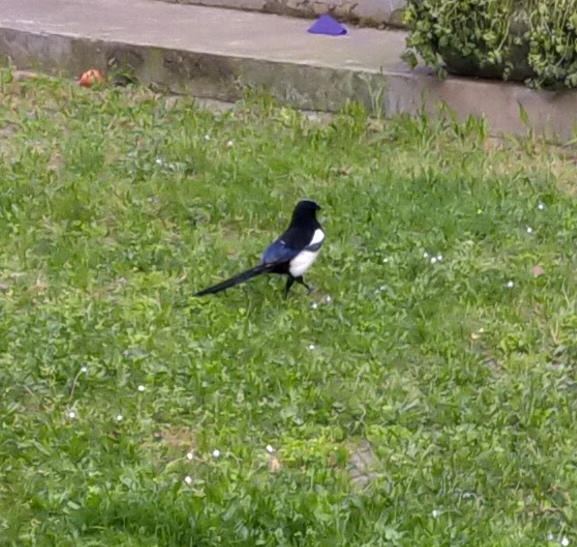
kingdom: Animalia
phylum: Chordata
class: Aves
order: Passeriformes
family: Corvidae
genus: Pica
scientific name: Pica pica
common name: Eurasian magpie
